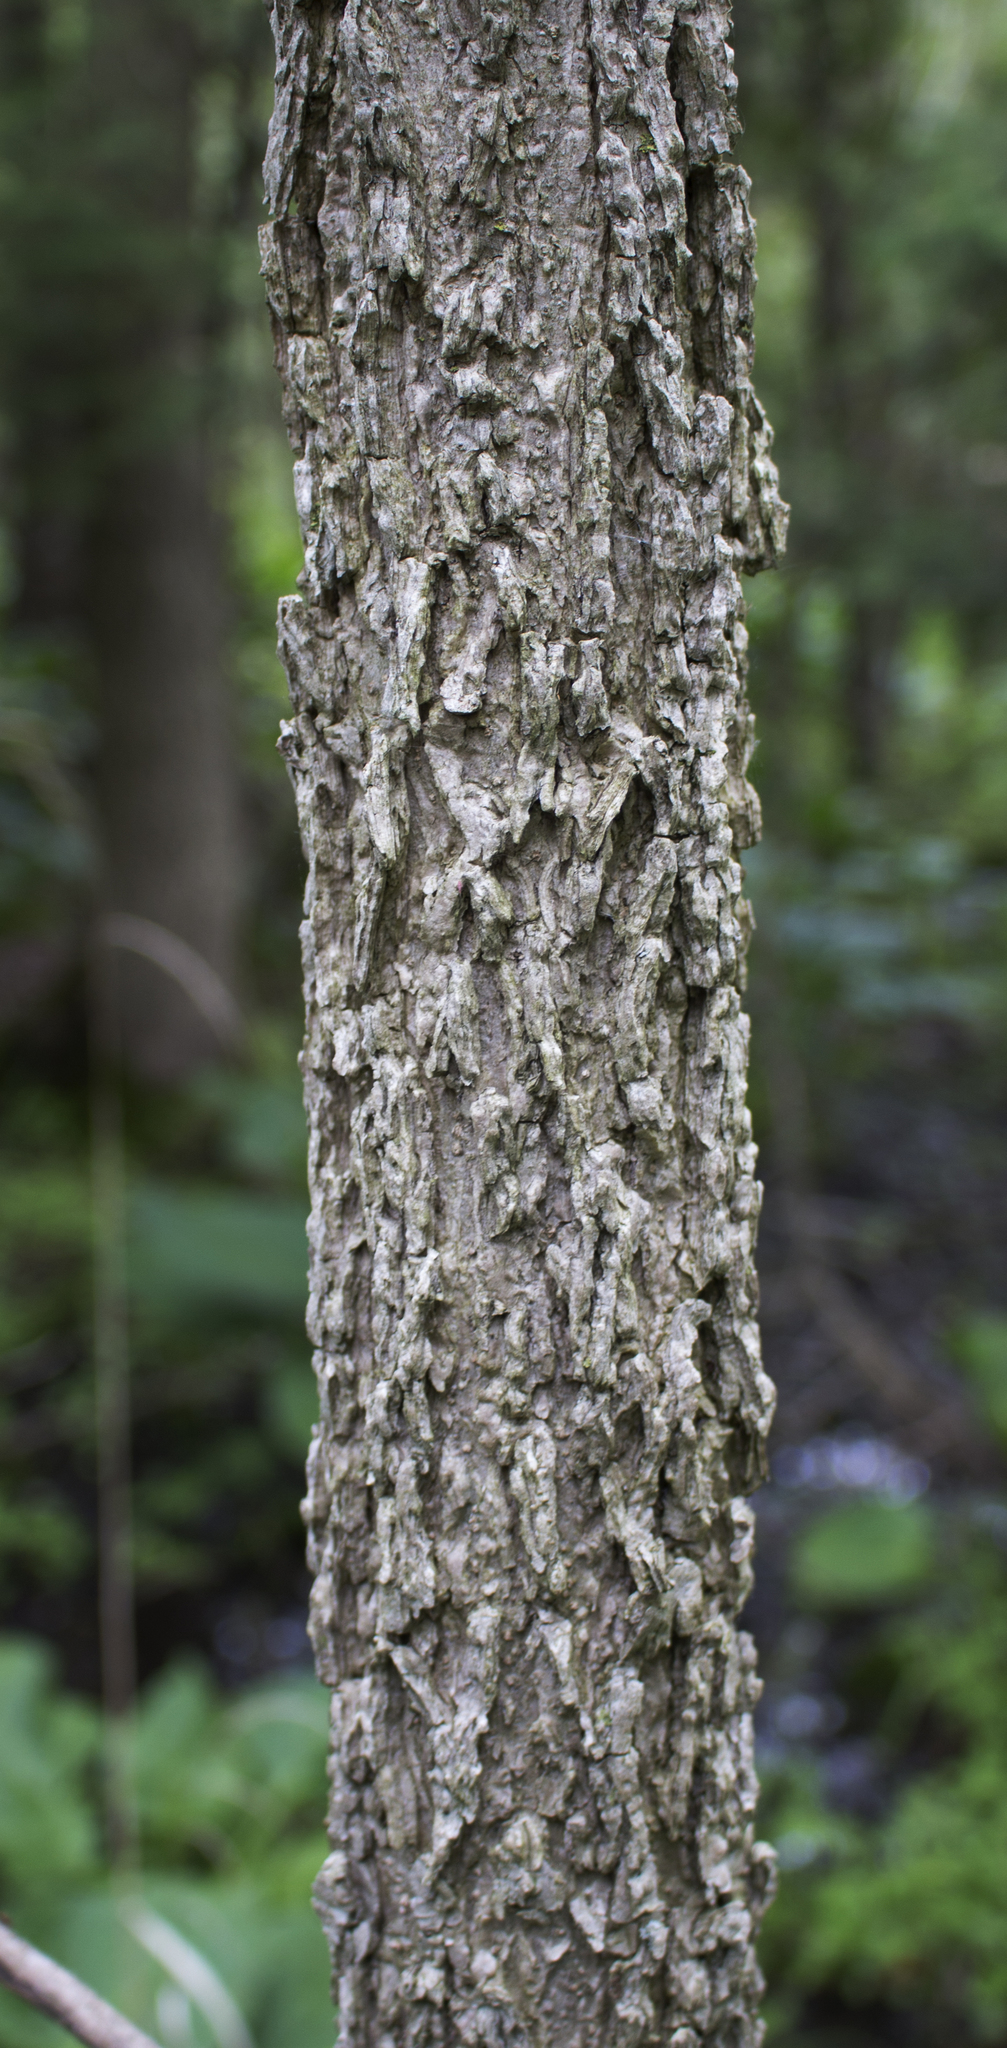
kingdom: Plantae
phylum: Tracheophyta
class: Magnoliopsida
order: Rosales
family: Cannabaceae
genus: Celtis
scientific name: Celtis occidentalis
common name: Common hackberry
